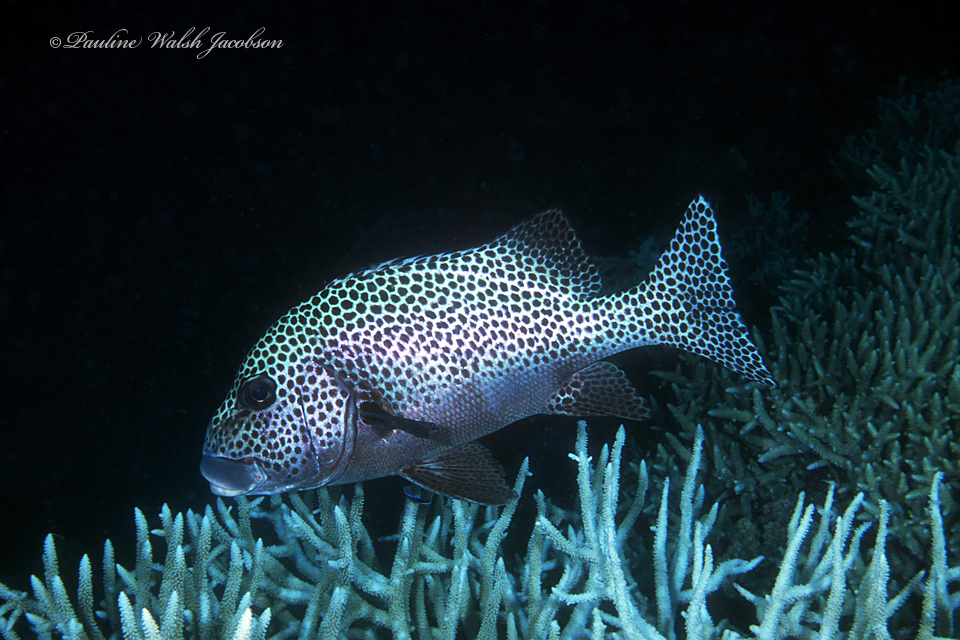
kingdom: Animalia
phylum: Chordata
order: Perciformes
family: Haemulidae
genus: Plectorhinchus
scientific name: Plectorhinchus chaetodonoides
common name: Harlequin sweetlips
